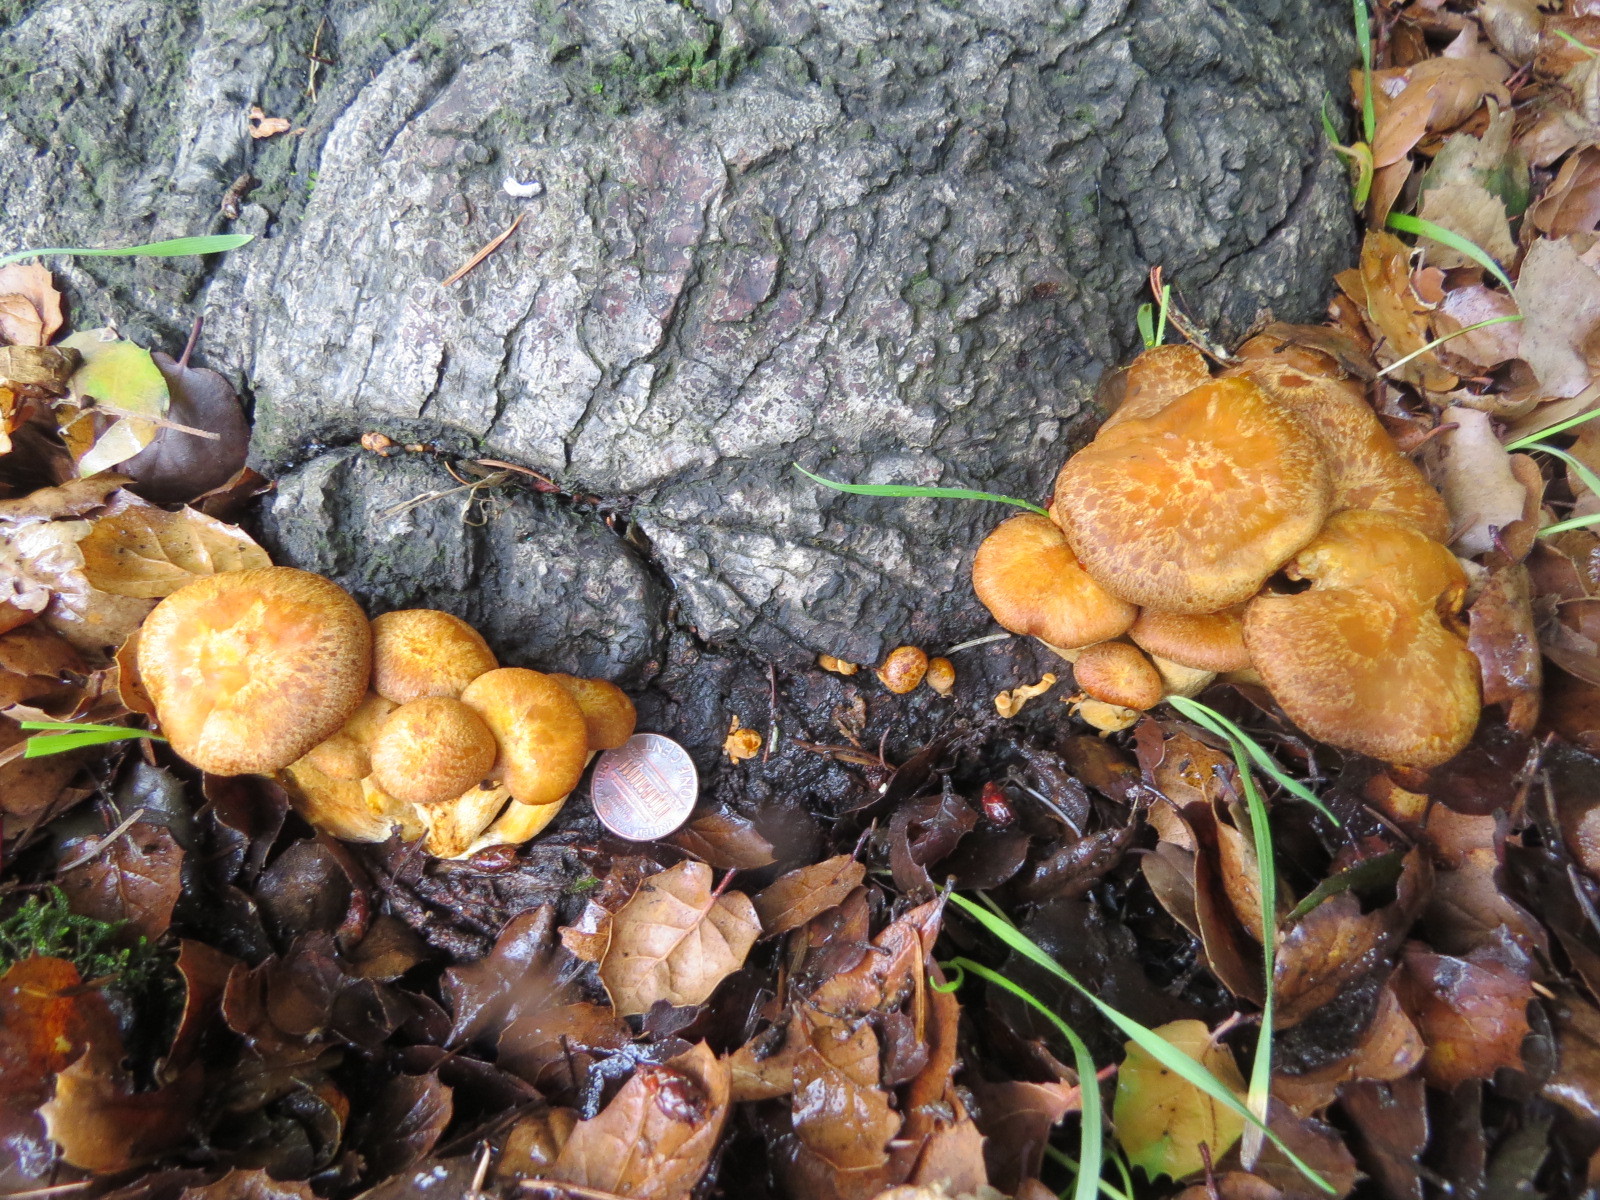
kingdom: Fungi
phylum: Basidiomycota
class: Agaricomycetes
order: Agaricales
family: Omphalotaceae
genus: Omphalotus
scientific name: Omphalotus olivascens
